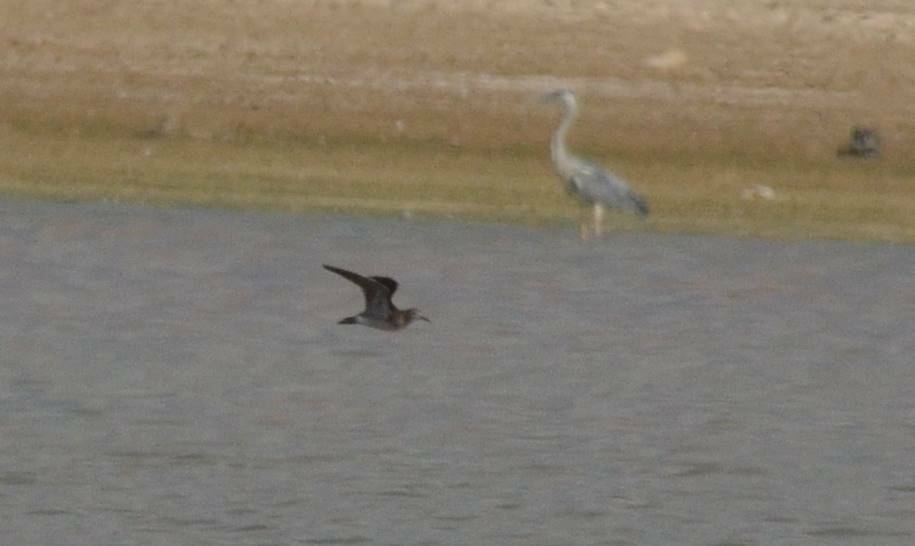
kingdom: Animalia
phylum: Chordata
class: Aves
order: Charadriiformes
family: Scolopacidae
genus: Calidris
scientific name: Calidris pugnax
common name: Ruff
